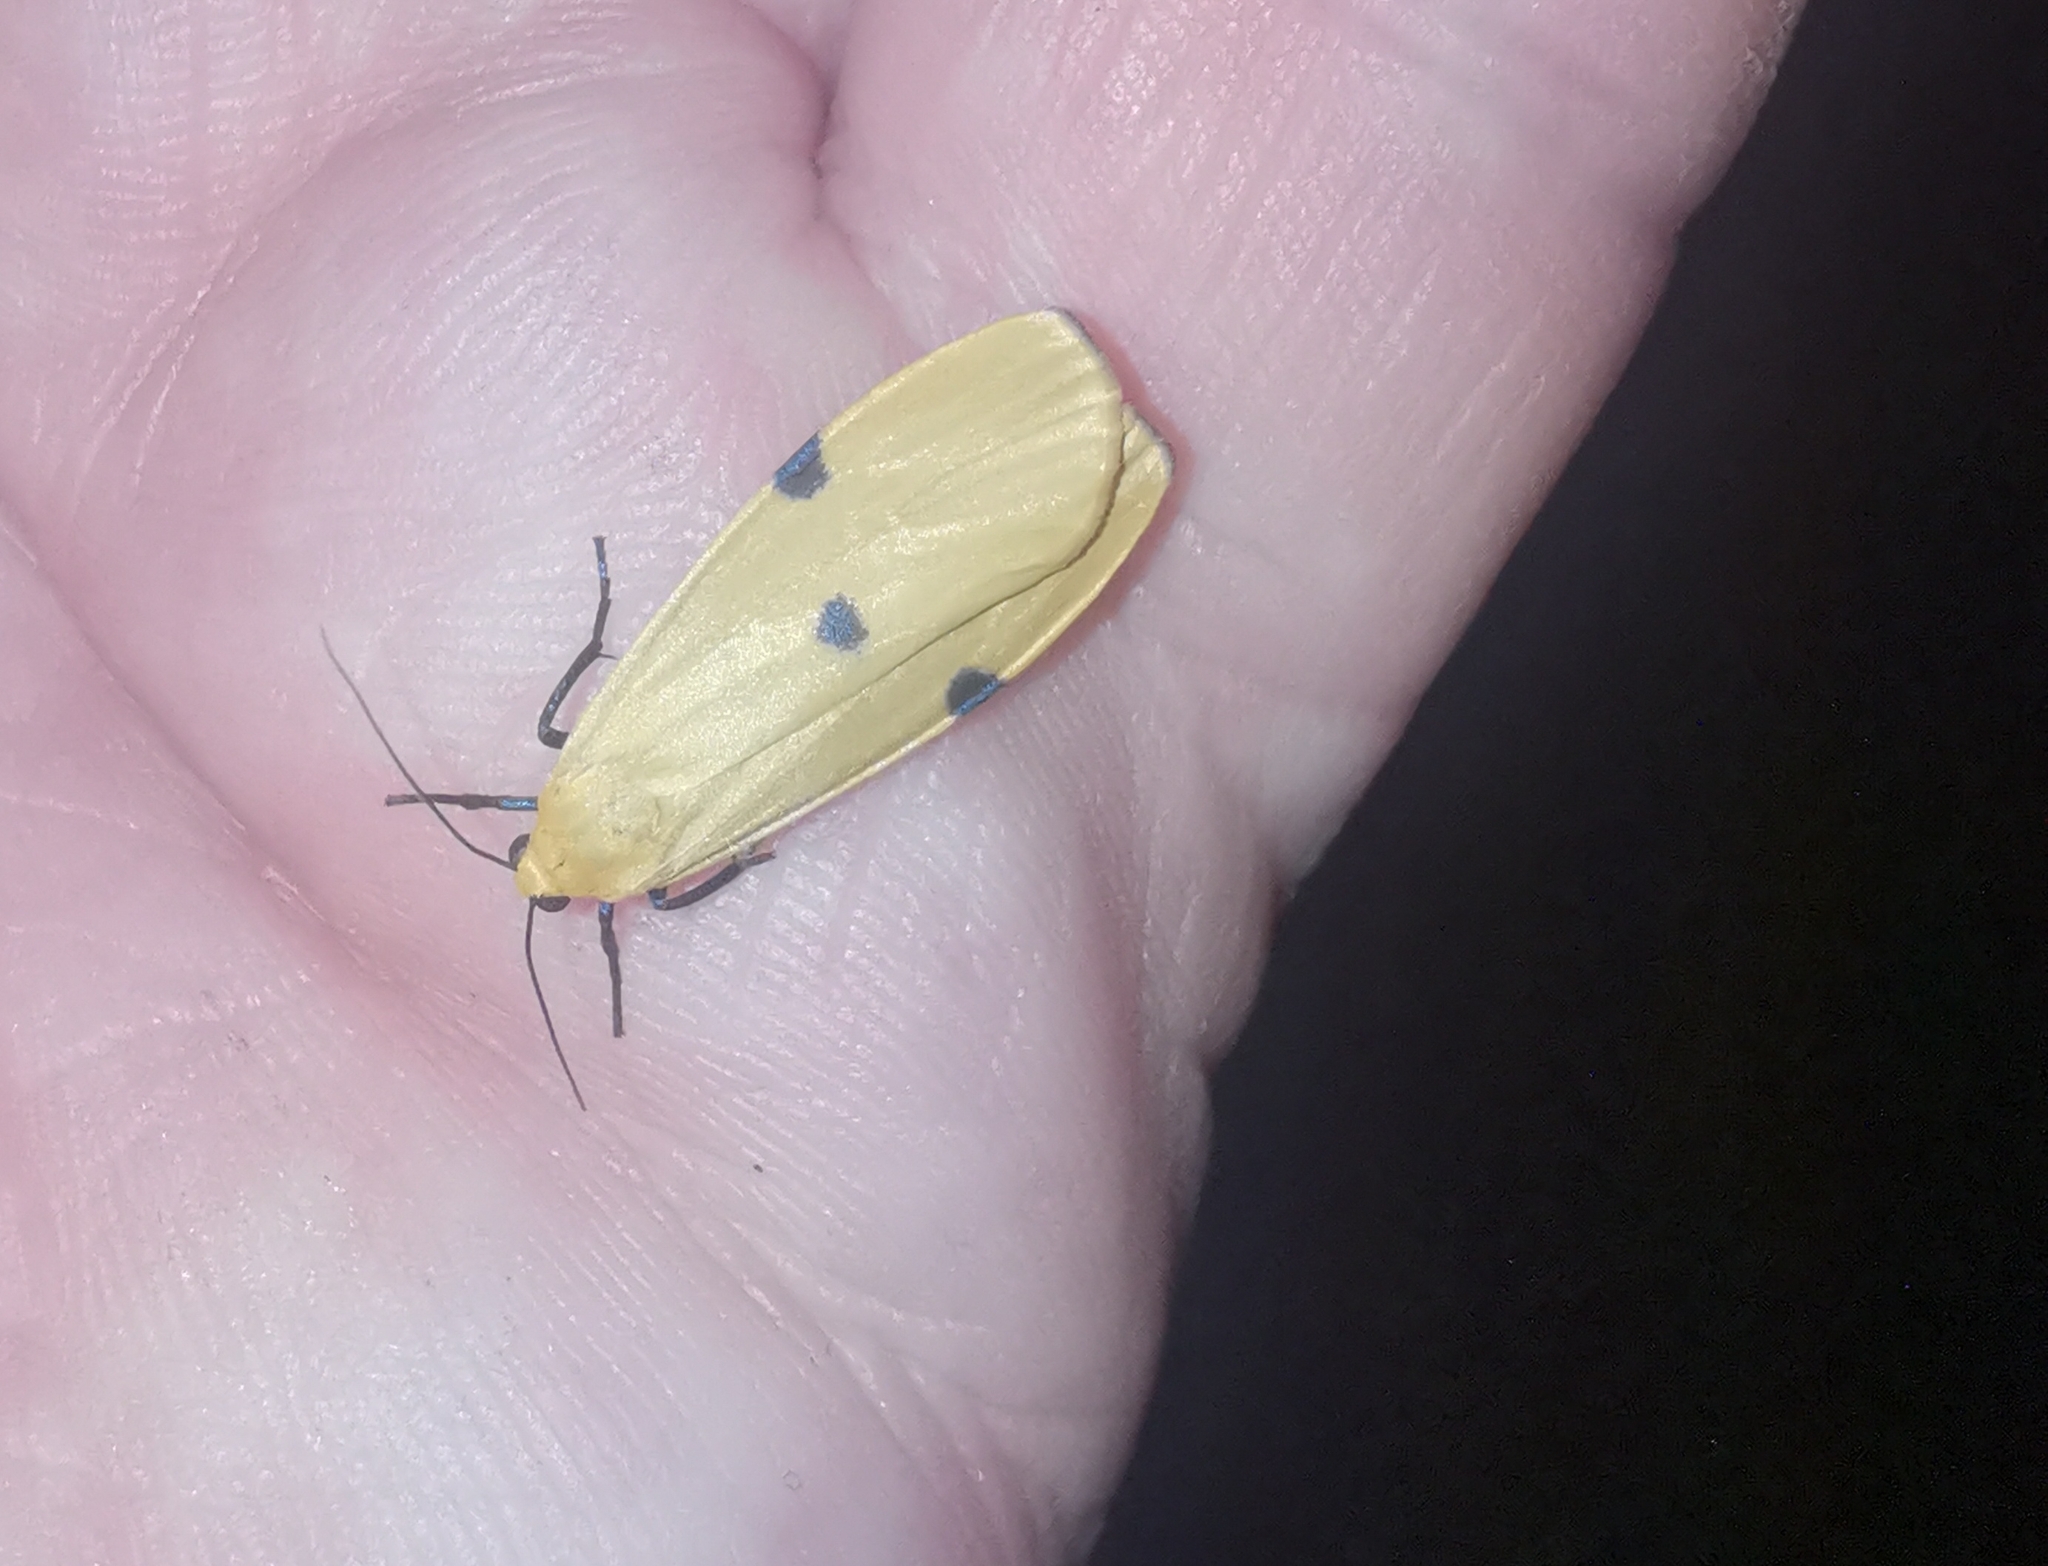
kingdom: Animalia
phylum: Arthropoda
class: Insecta
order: Lepidoptera
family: Erebidae
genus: Lithosia
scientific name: Lithosia quadra
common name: Four-spotted footman
